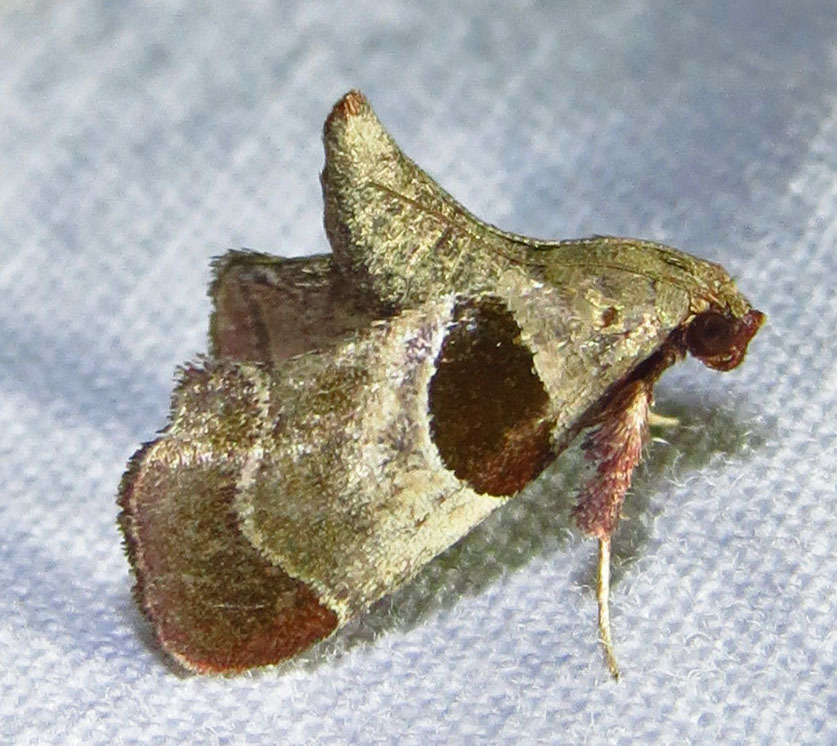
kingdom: Animalia
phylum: Arthropoda
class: Insecta
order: Lepidoptera
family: Pyralidae
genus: Tosale
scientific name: Tosale oviplagalis
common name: Dimorphic tosale moth
